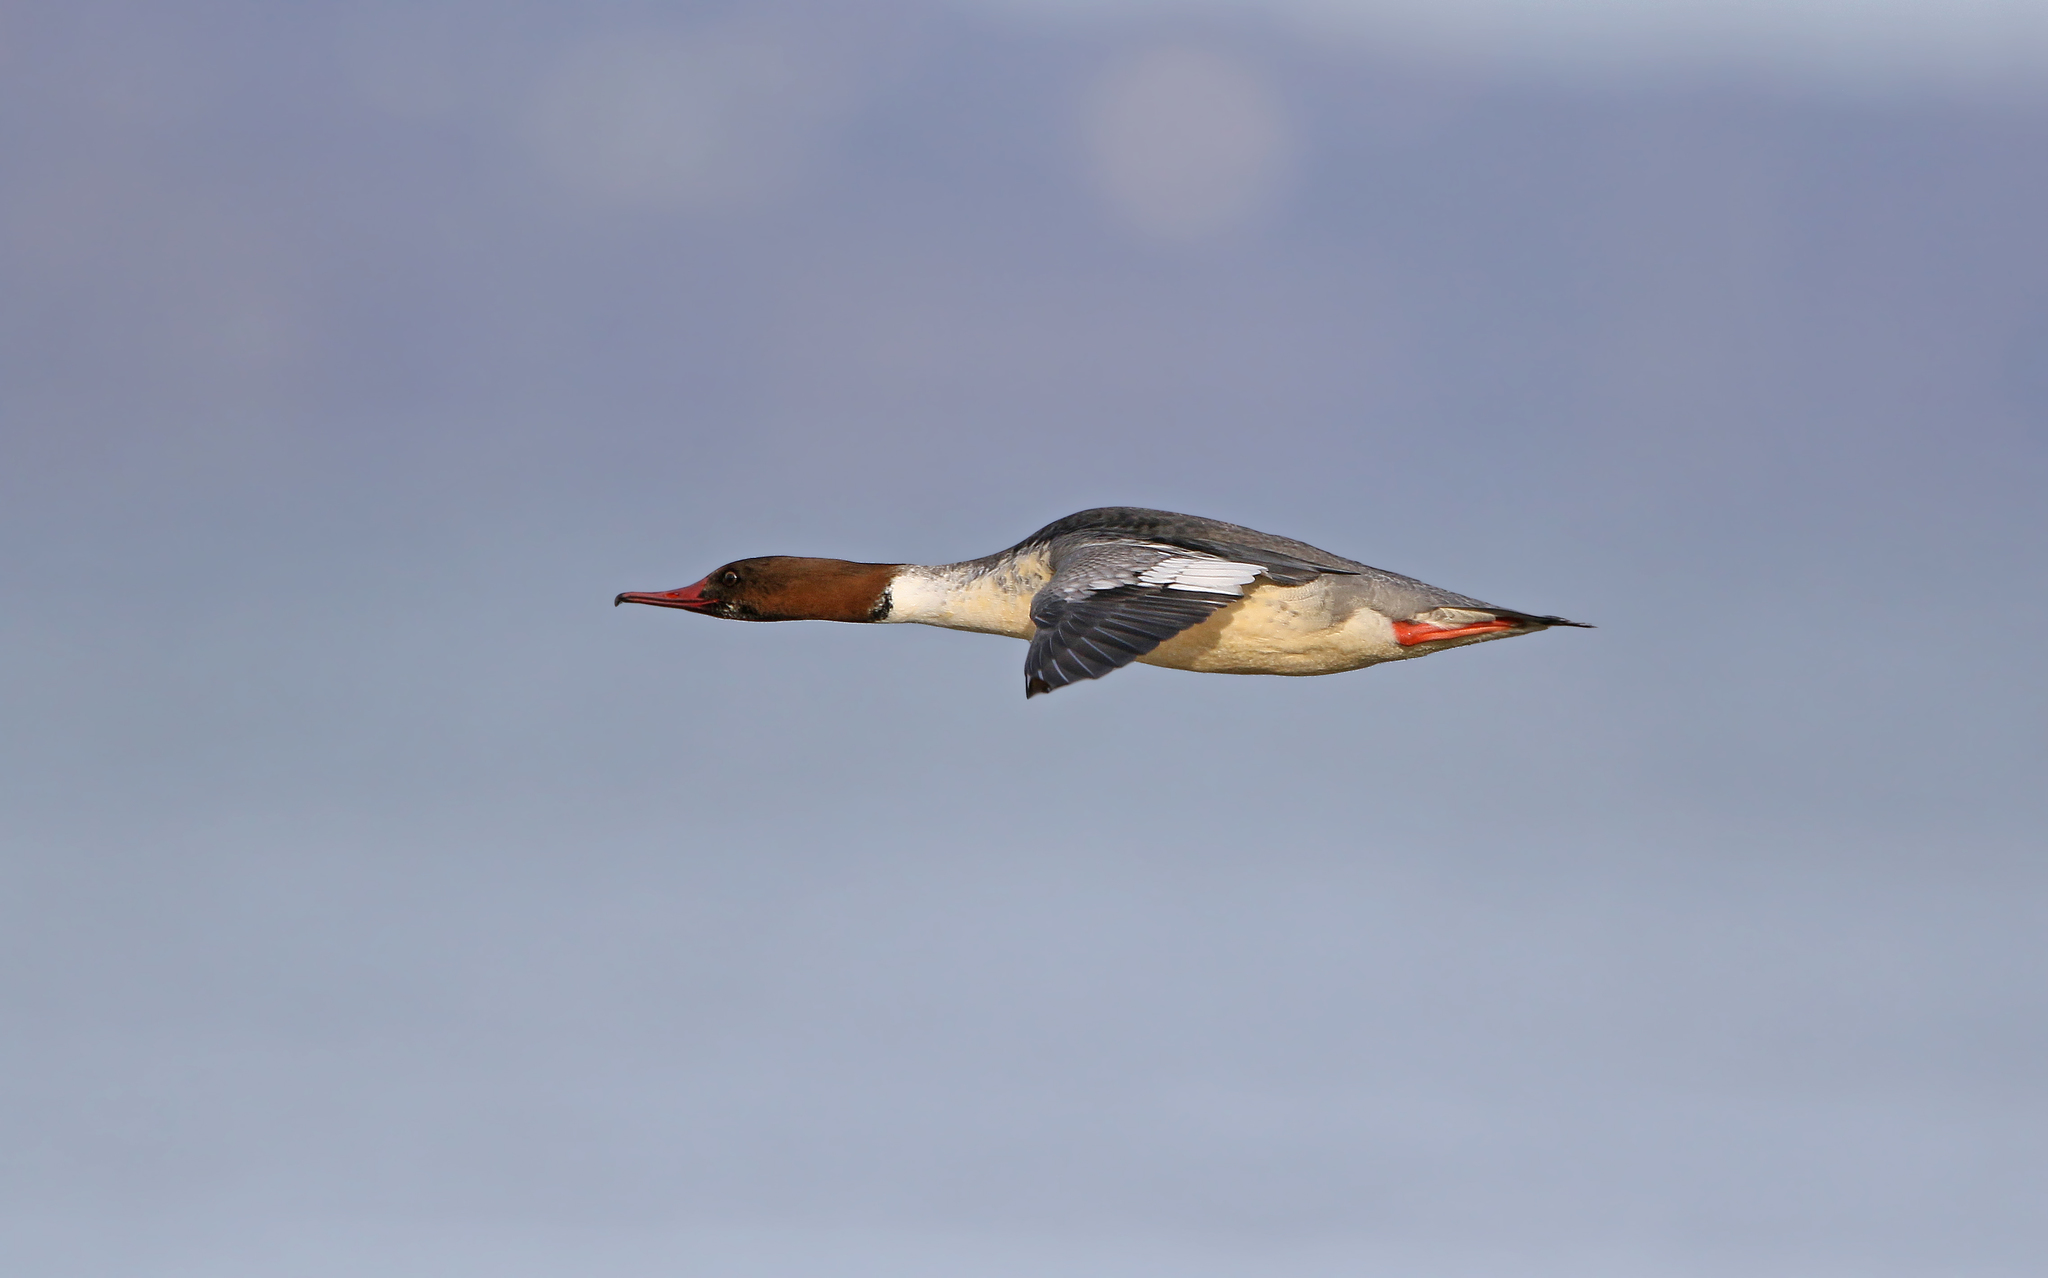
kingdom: Animalia
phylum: Chordata
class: Aves
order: Anseriformes
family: Anatidae
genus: Mergus
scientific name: Mergus merganser
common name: Common merganser
